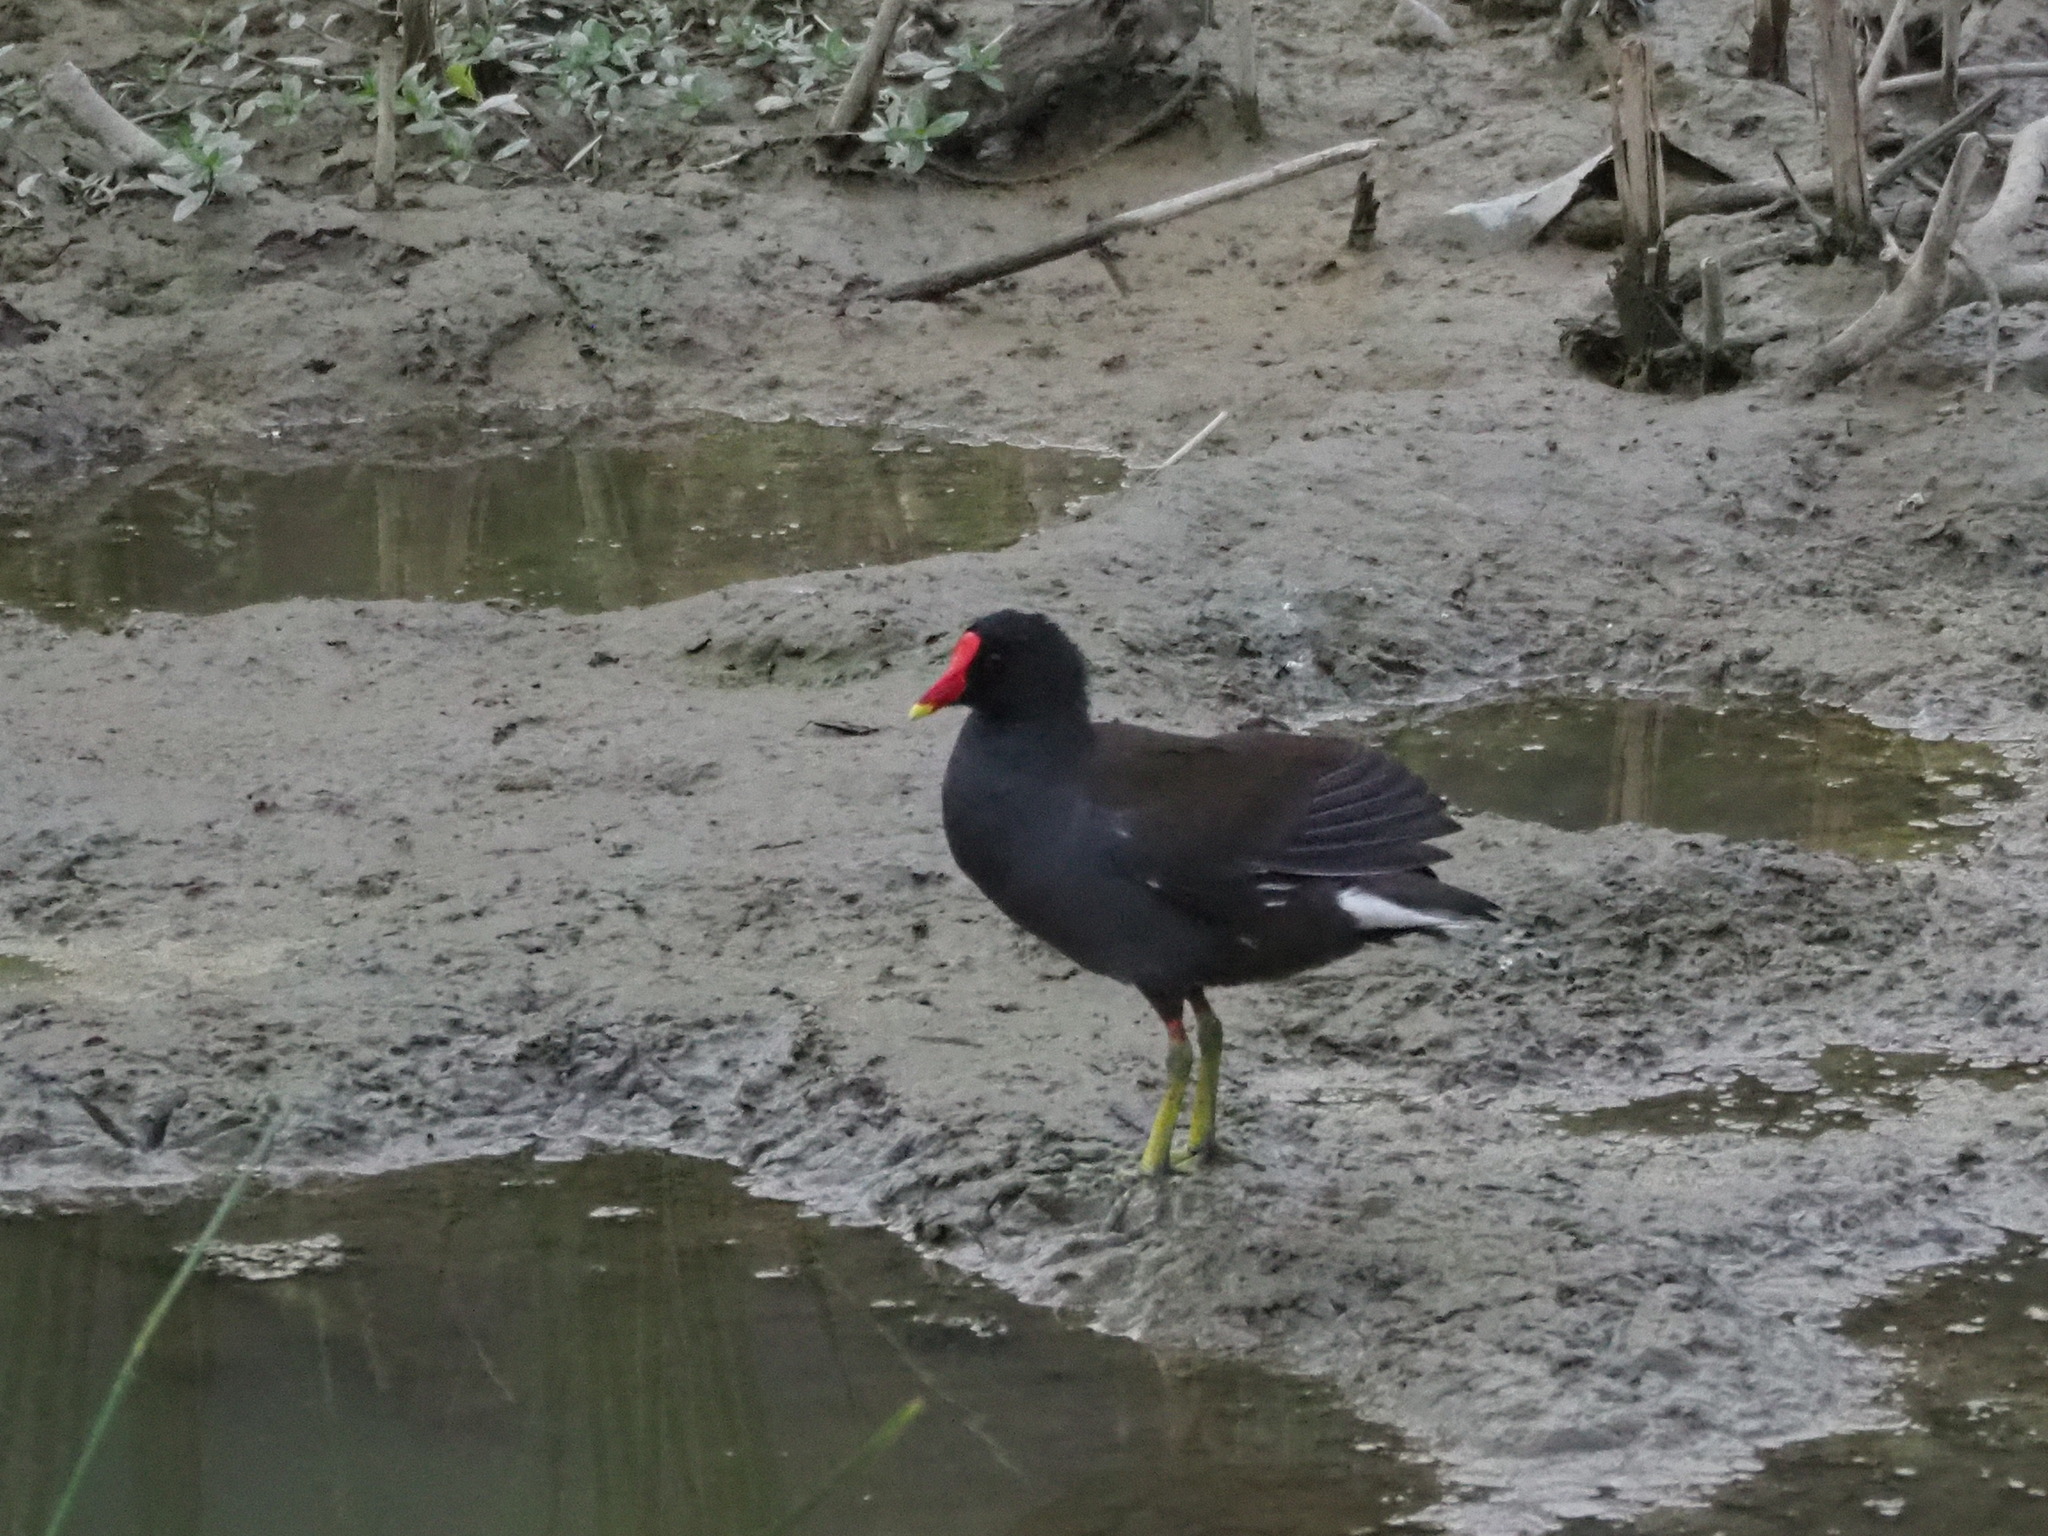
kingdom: Animalia
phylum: Chordata
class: Aves
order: Gruiformes
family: Rallidae
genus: Gallinula
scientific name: Gallinula chloropus
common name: Common moorhen
